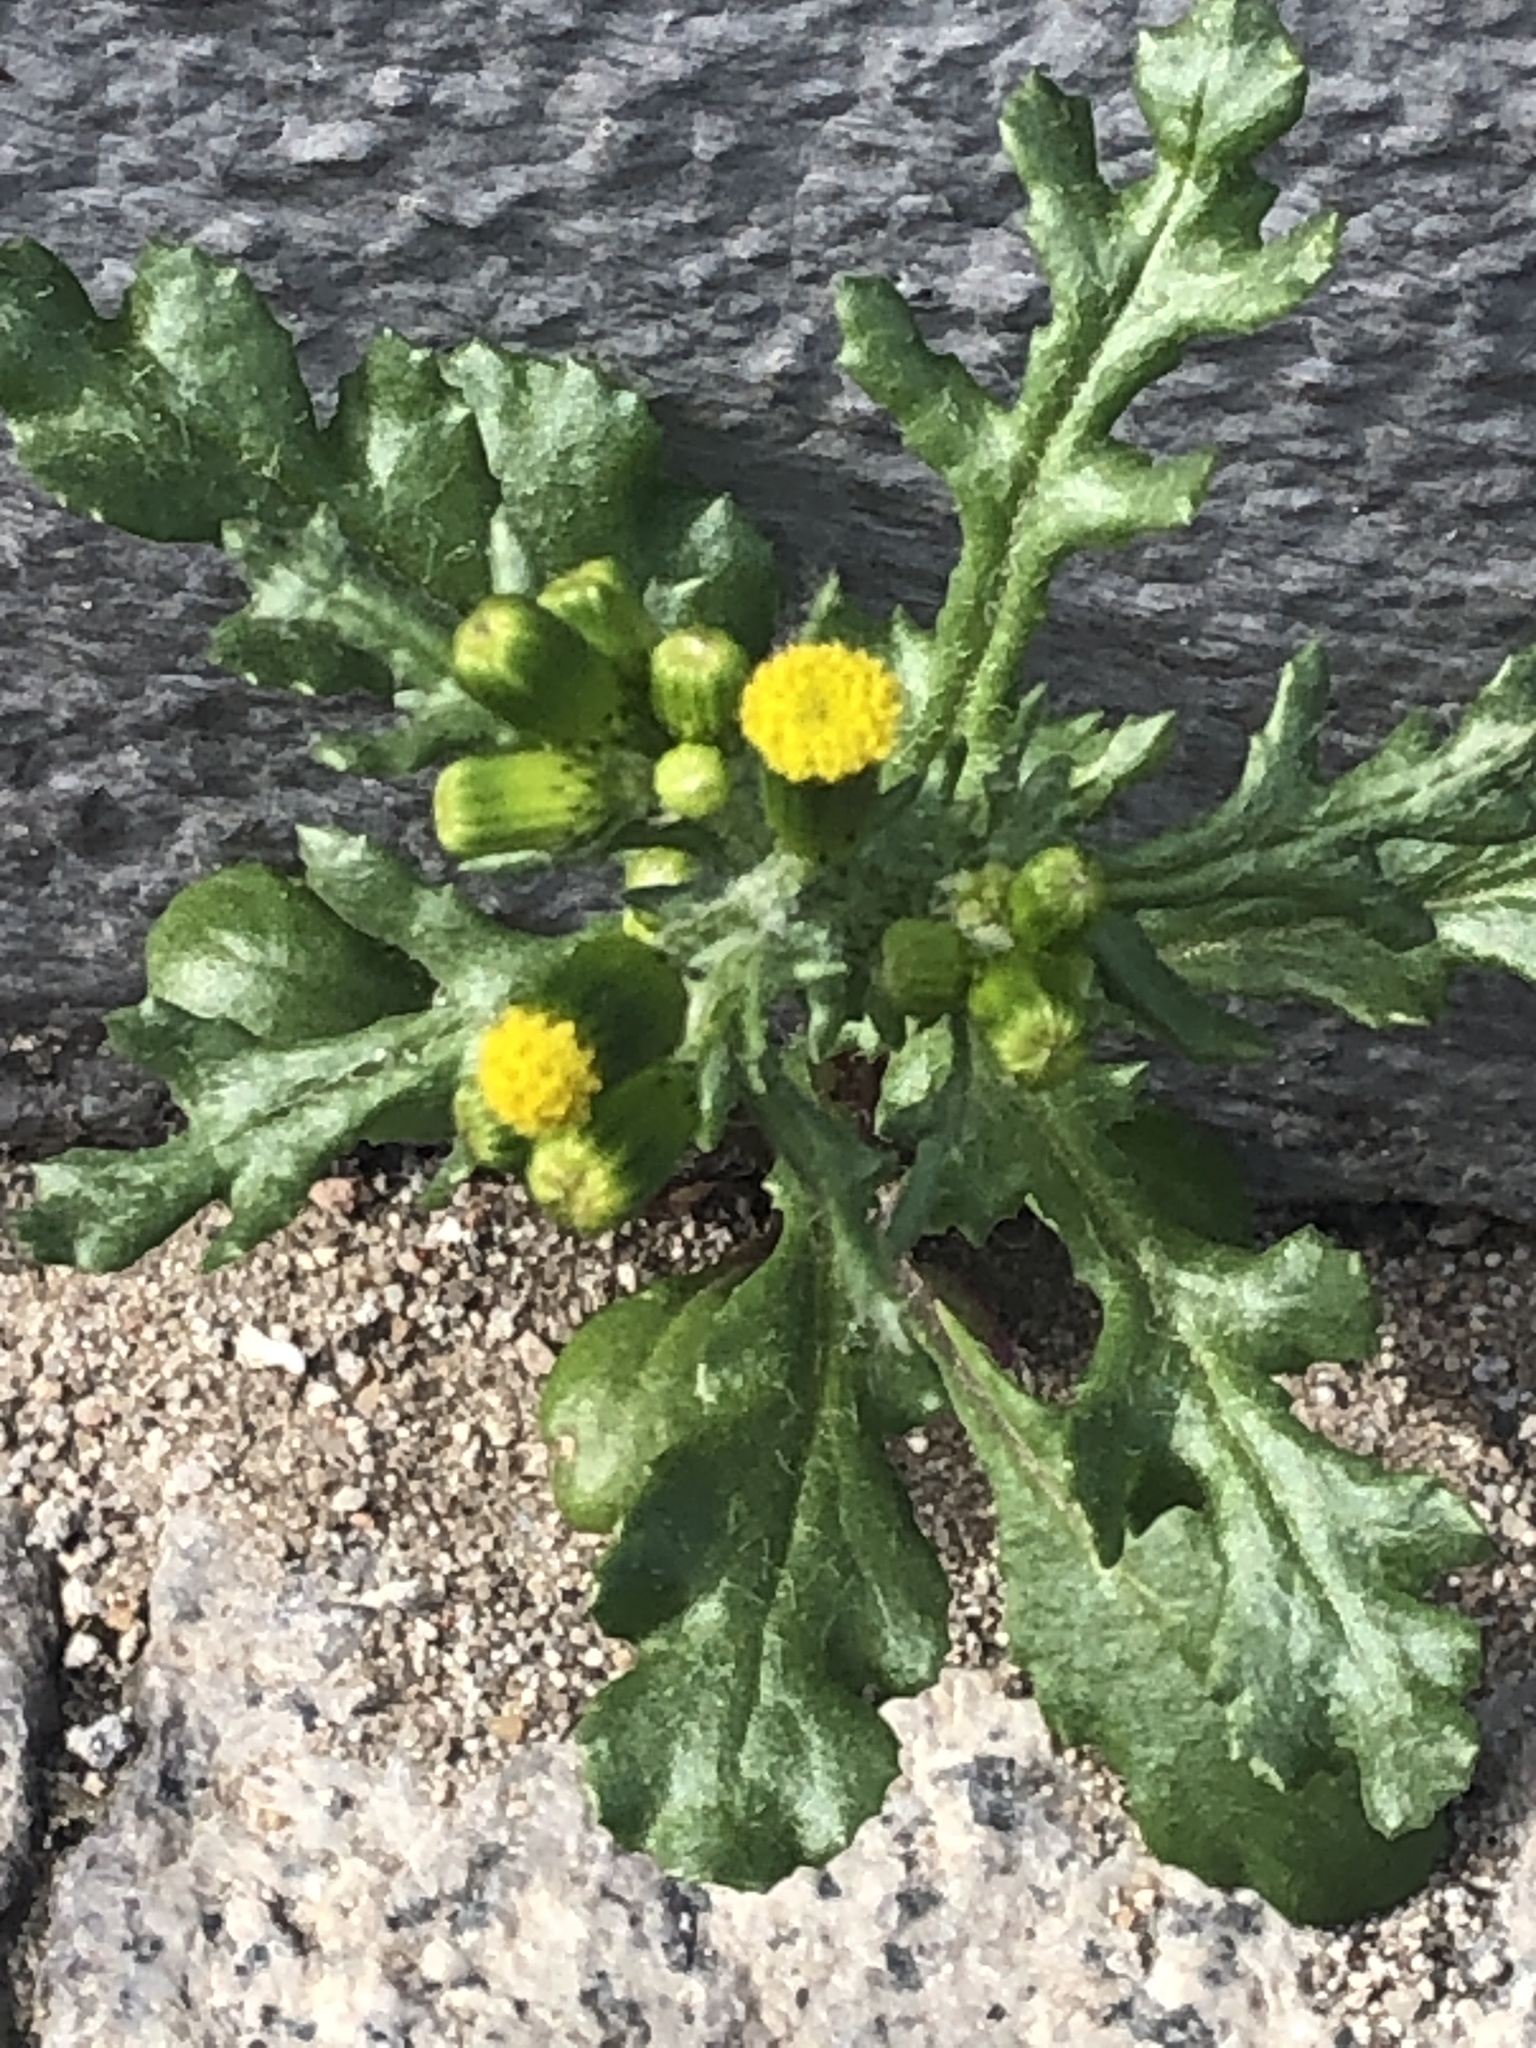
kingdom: Plantae
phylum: Tracheophyta
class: Magnoliopsida
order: Asterales
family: Asteraceae
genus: Senecio
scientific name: Senecio vulgaris
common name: Old-man-in-the-spring
